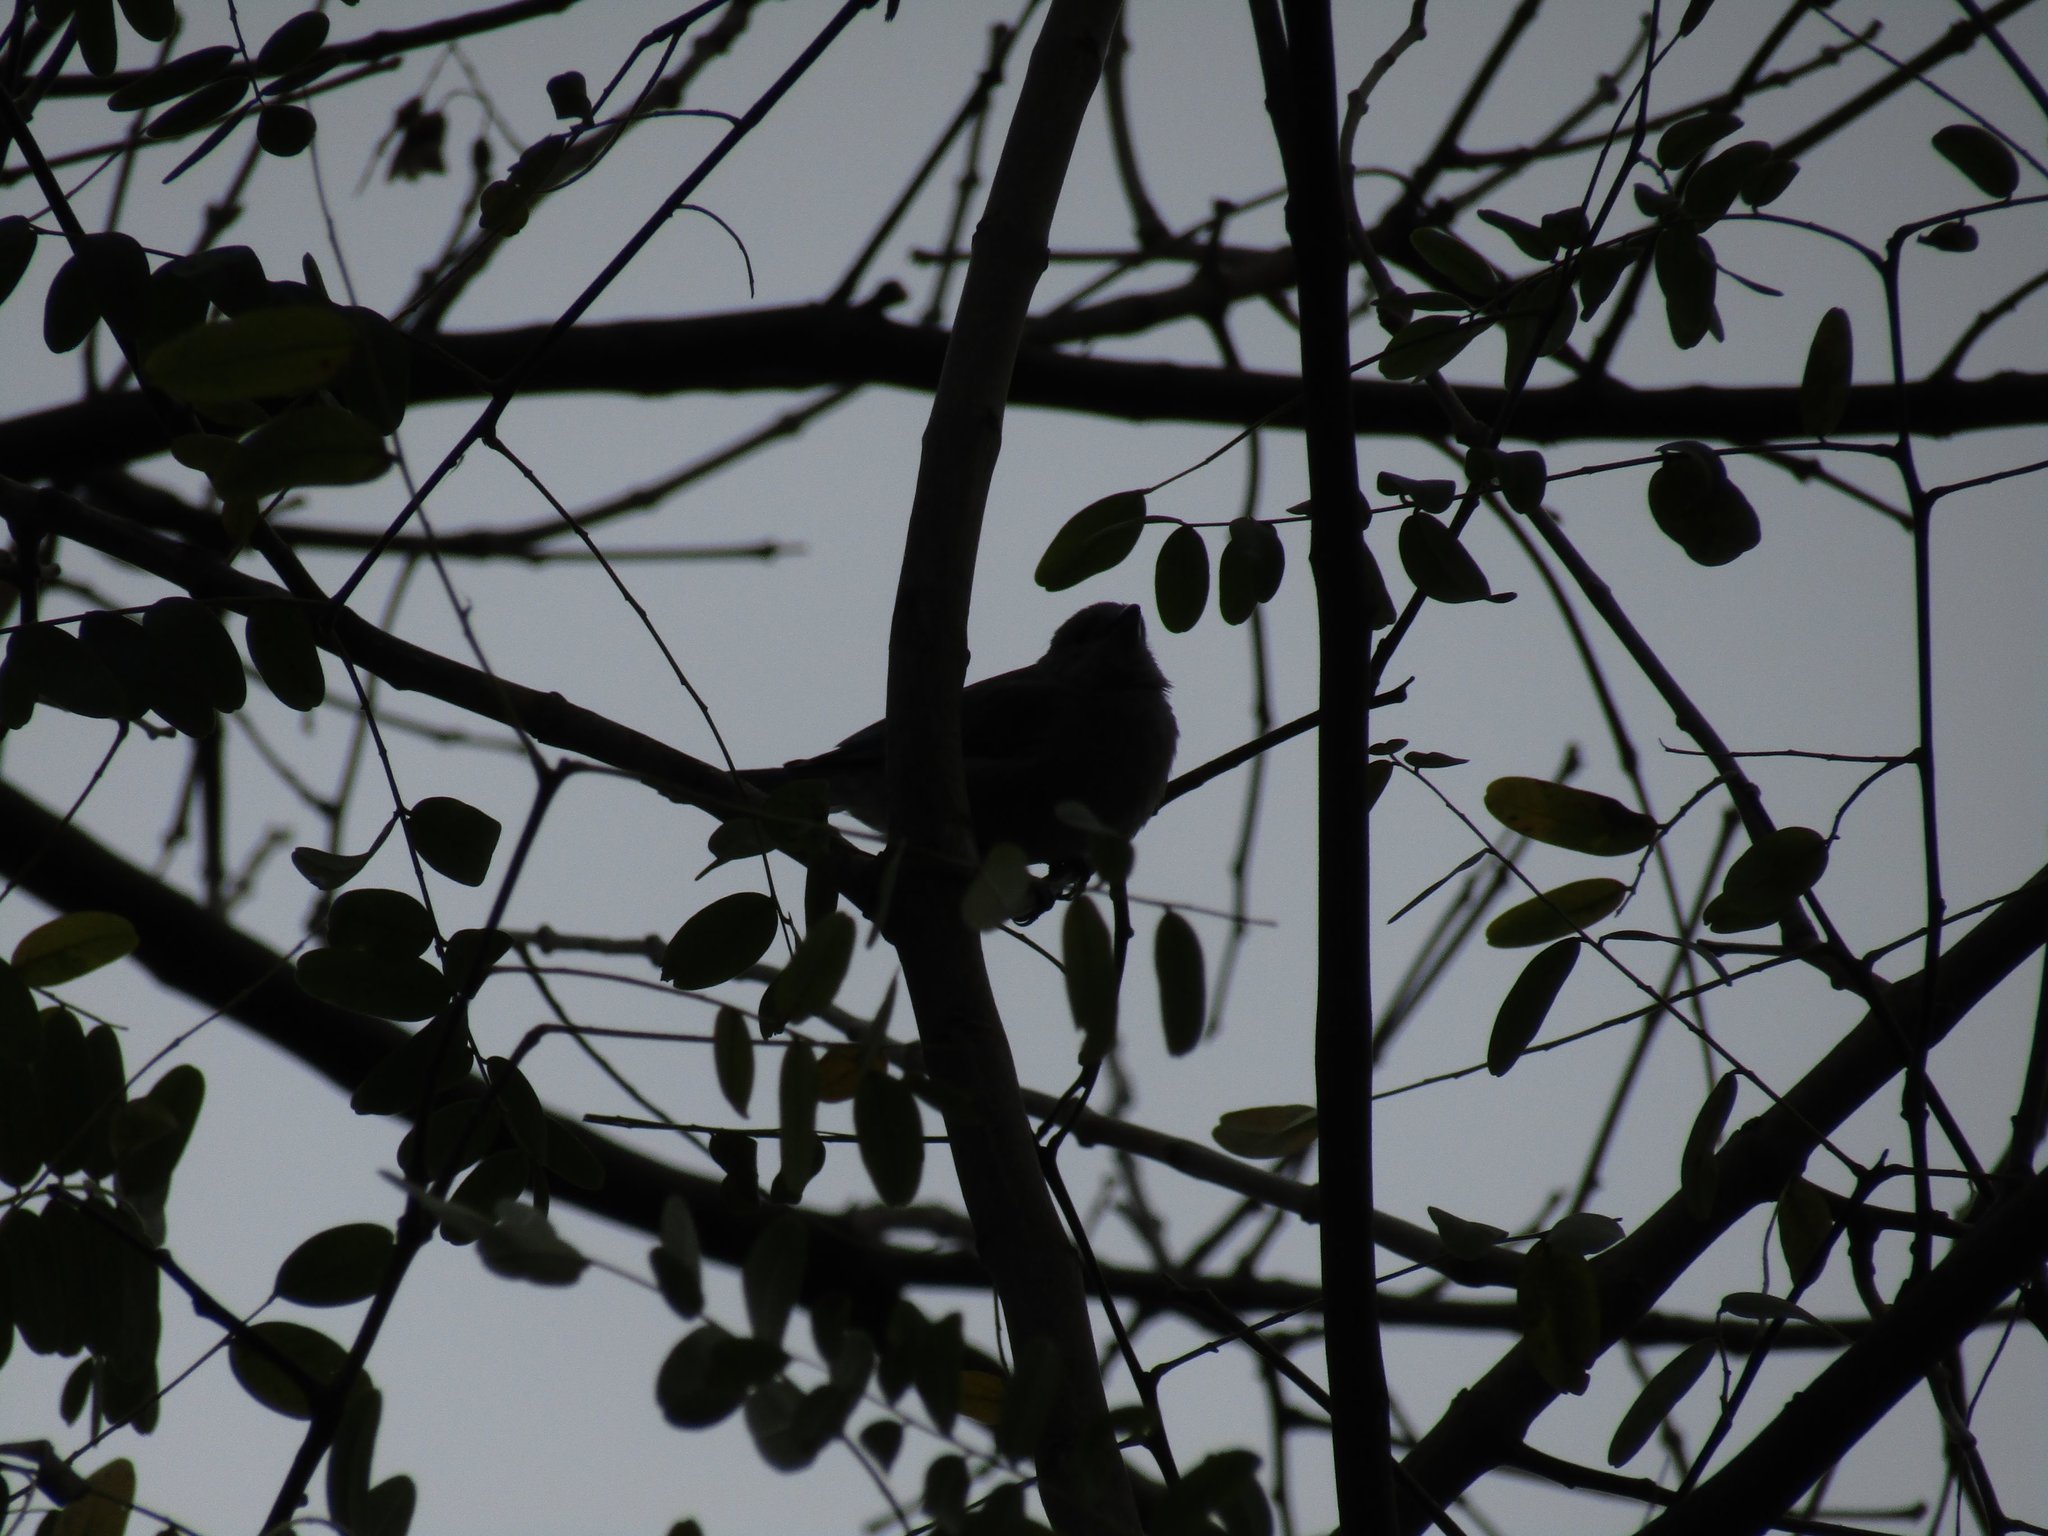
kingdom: Animalia
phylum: Chordata
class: Aves
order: Passeriformes
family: Thraupidae
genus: Thraupis
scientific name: Thraupis sayaca
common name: Sayaca tanager
